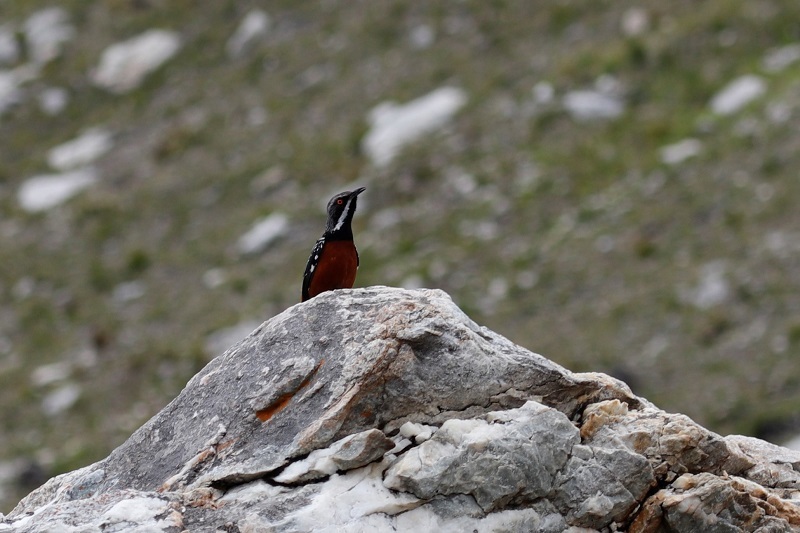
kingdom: Animalia
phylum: Chordata
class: Aves
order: Passeriformes
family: Chaetopidae
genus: Chaetops
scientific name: Chaetops frenatus
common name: Cape rockjumper
